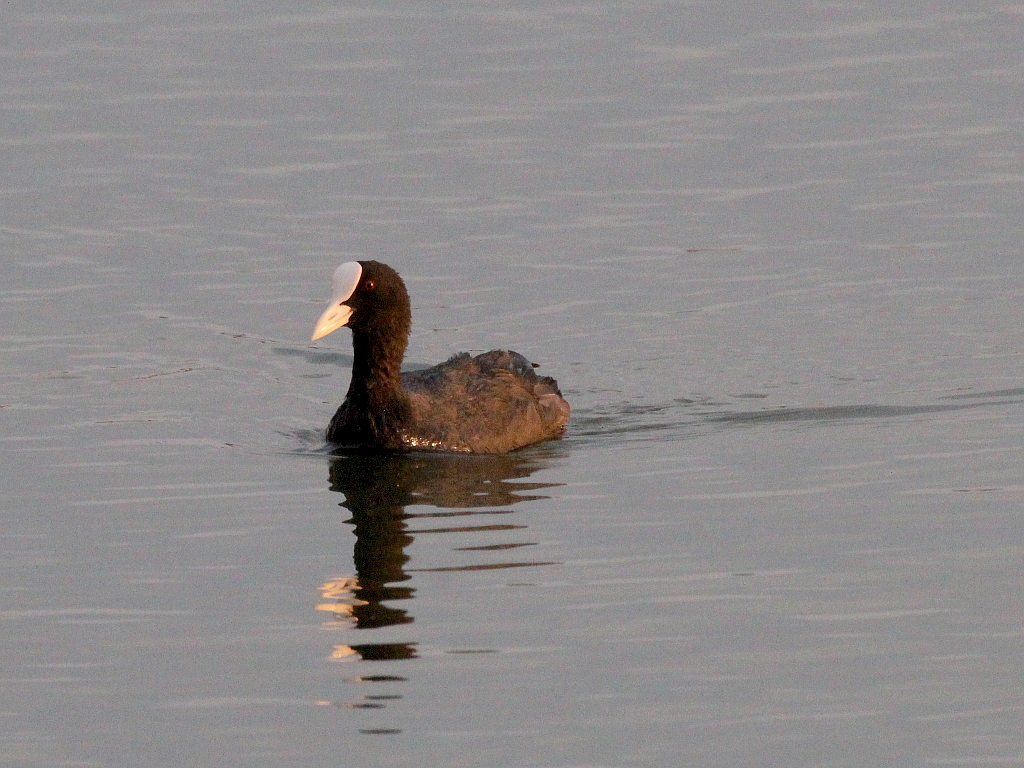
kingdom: Animalia
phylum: Chordata
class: Aves
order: Gruiformes
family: Rallidae
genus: Fulica
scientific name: Fulica atra
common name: Eurasian coot
